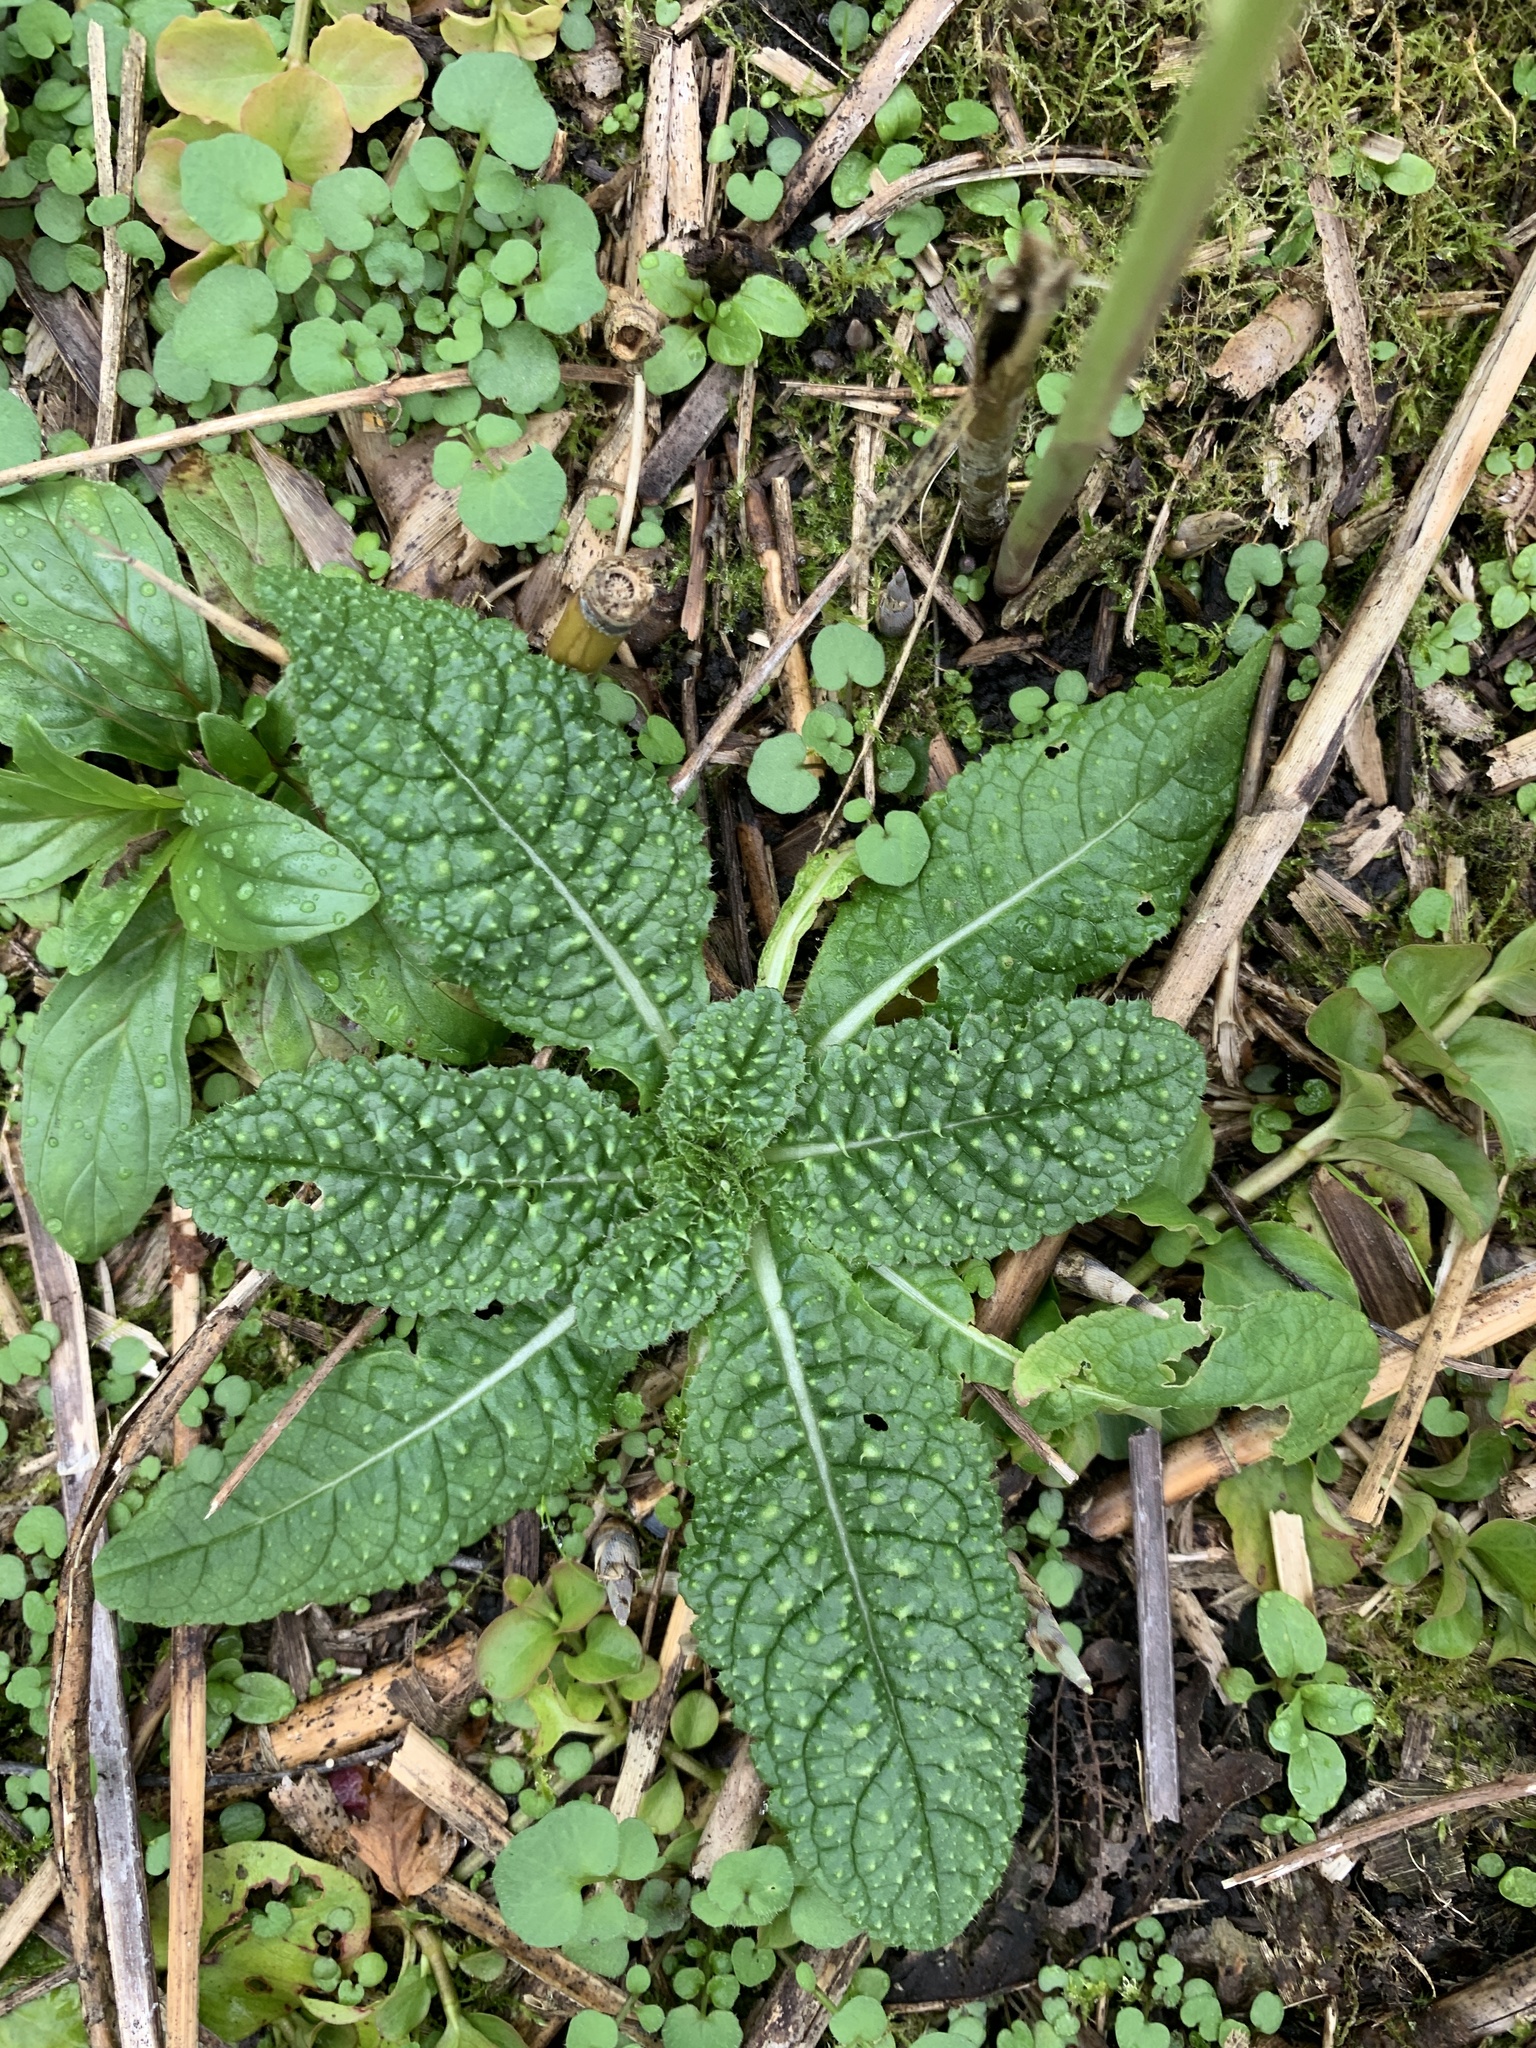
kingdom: Plantae
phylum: Tracheophyta
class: Magnoliopsida
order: Dipsacales
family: Caprifoliaceae
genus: Dipsacus
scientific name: Dipsacus fullonum
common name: Teasel
